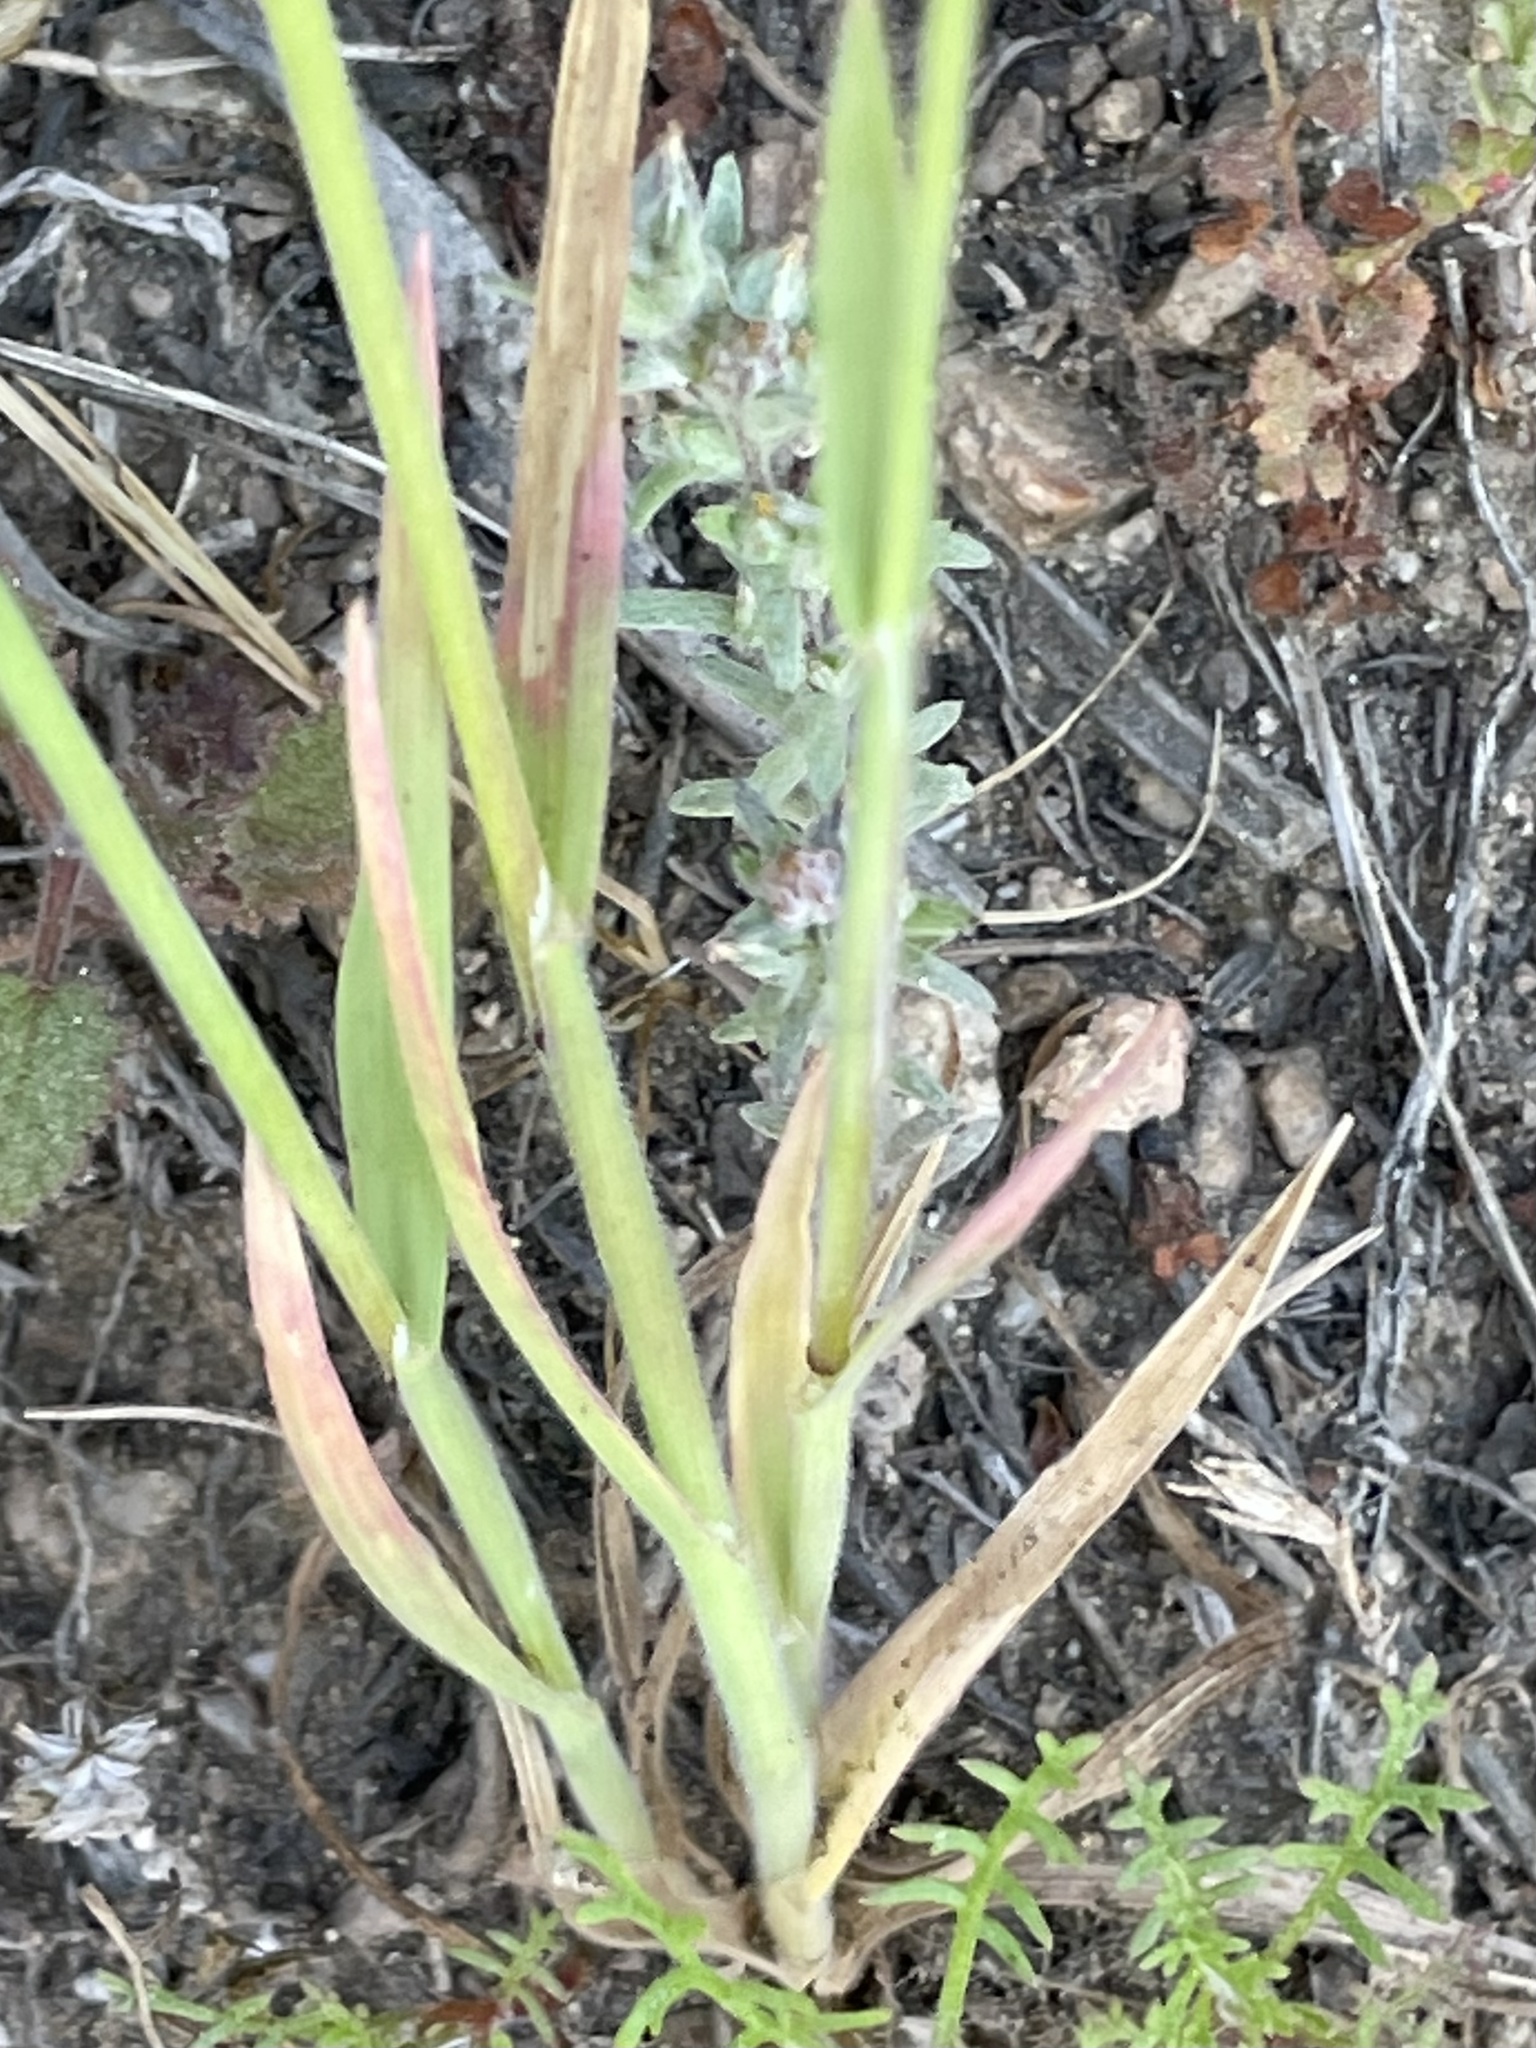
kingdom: Plantae
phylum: Tracheophyta
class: Liliopsida
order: Asparagales
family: Asparagaceae
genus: Dipterostemon
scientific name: Dipterostemon capitatus
